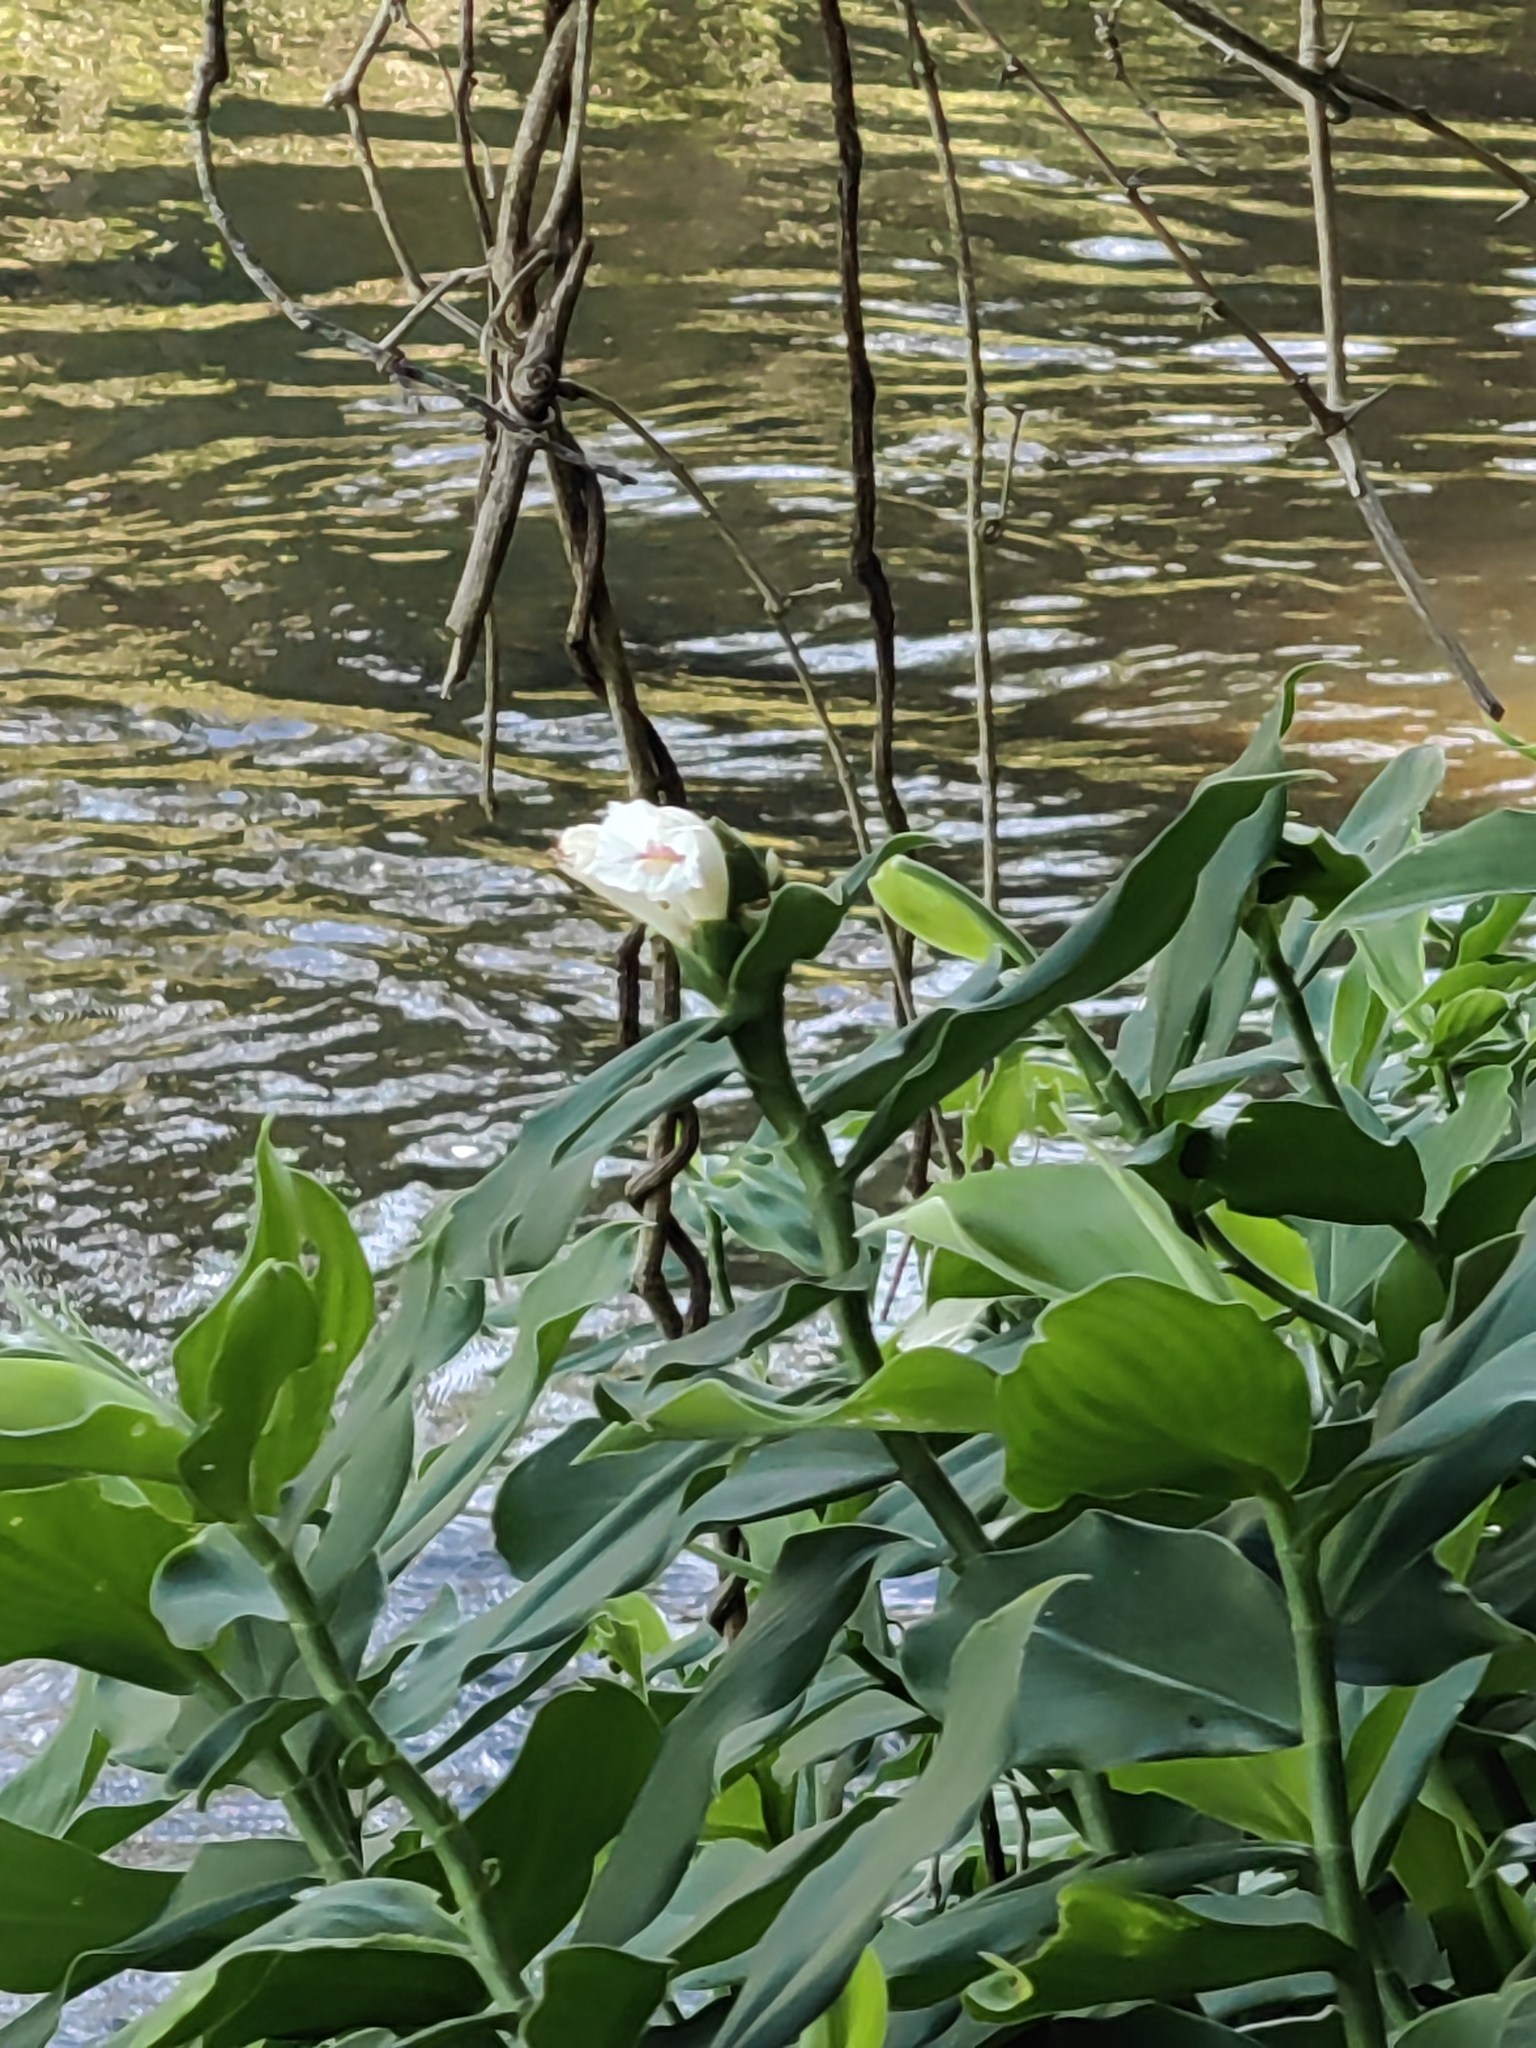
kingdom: Plantae
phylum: Tracheophyta
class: Liliopsida
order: Zingiberales
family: Costaceae
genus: Costus
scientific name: Costus arabicus
